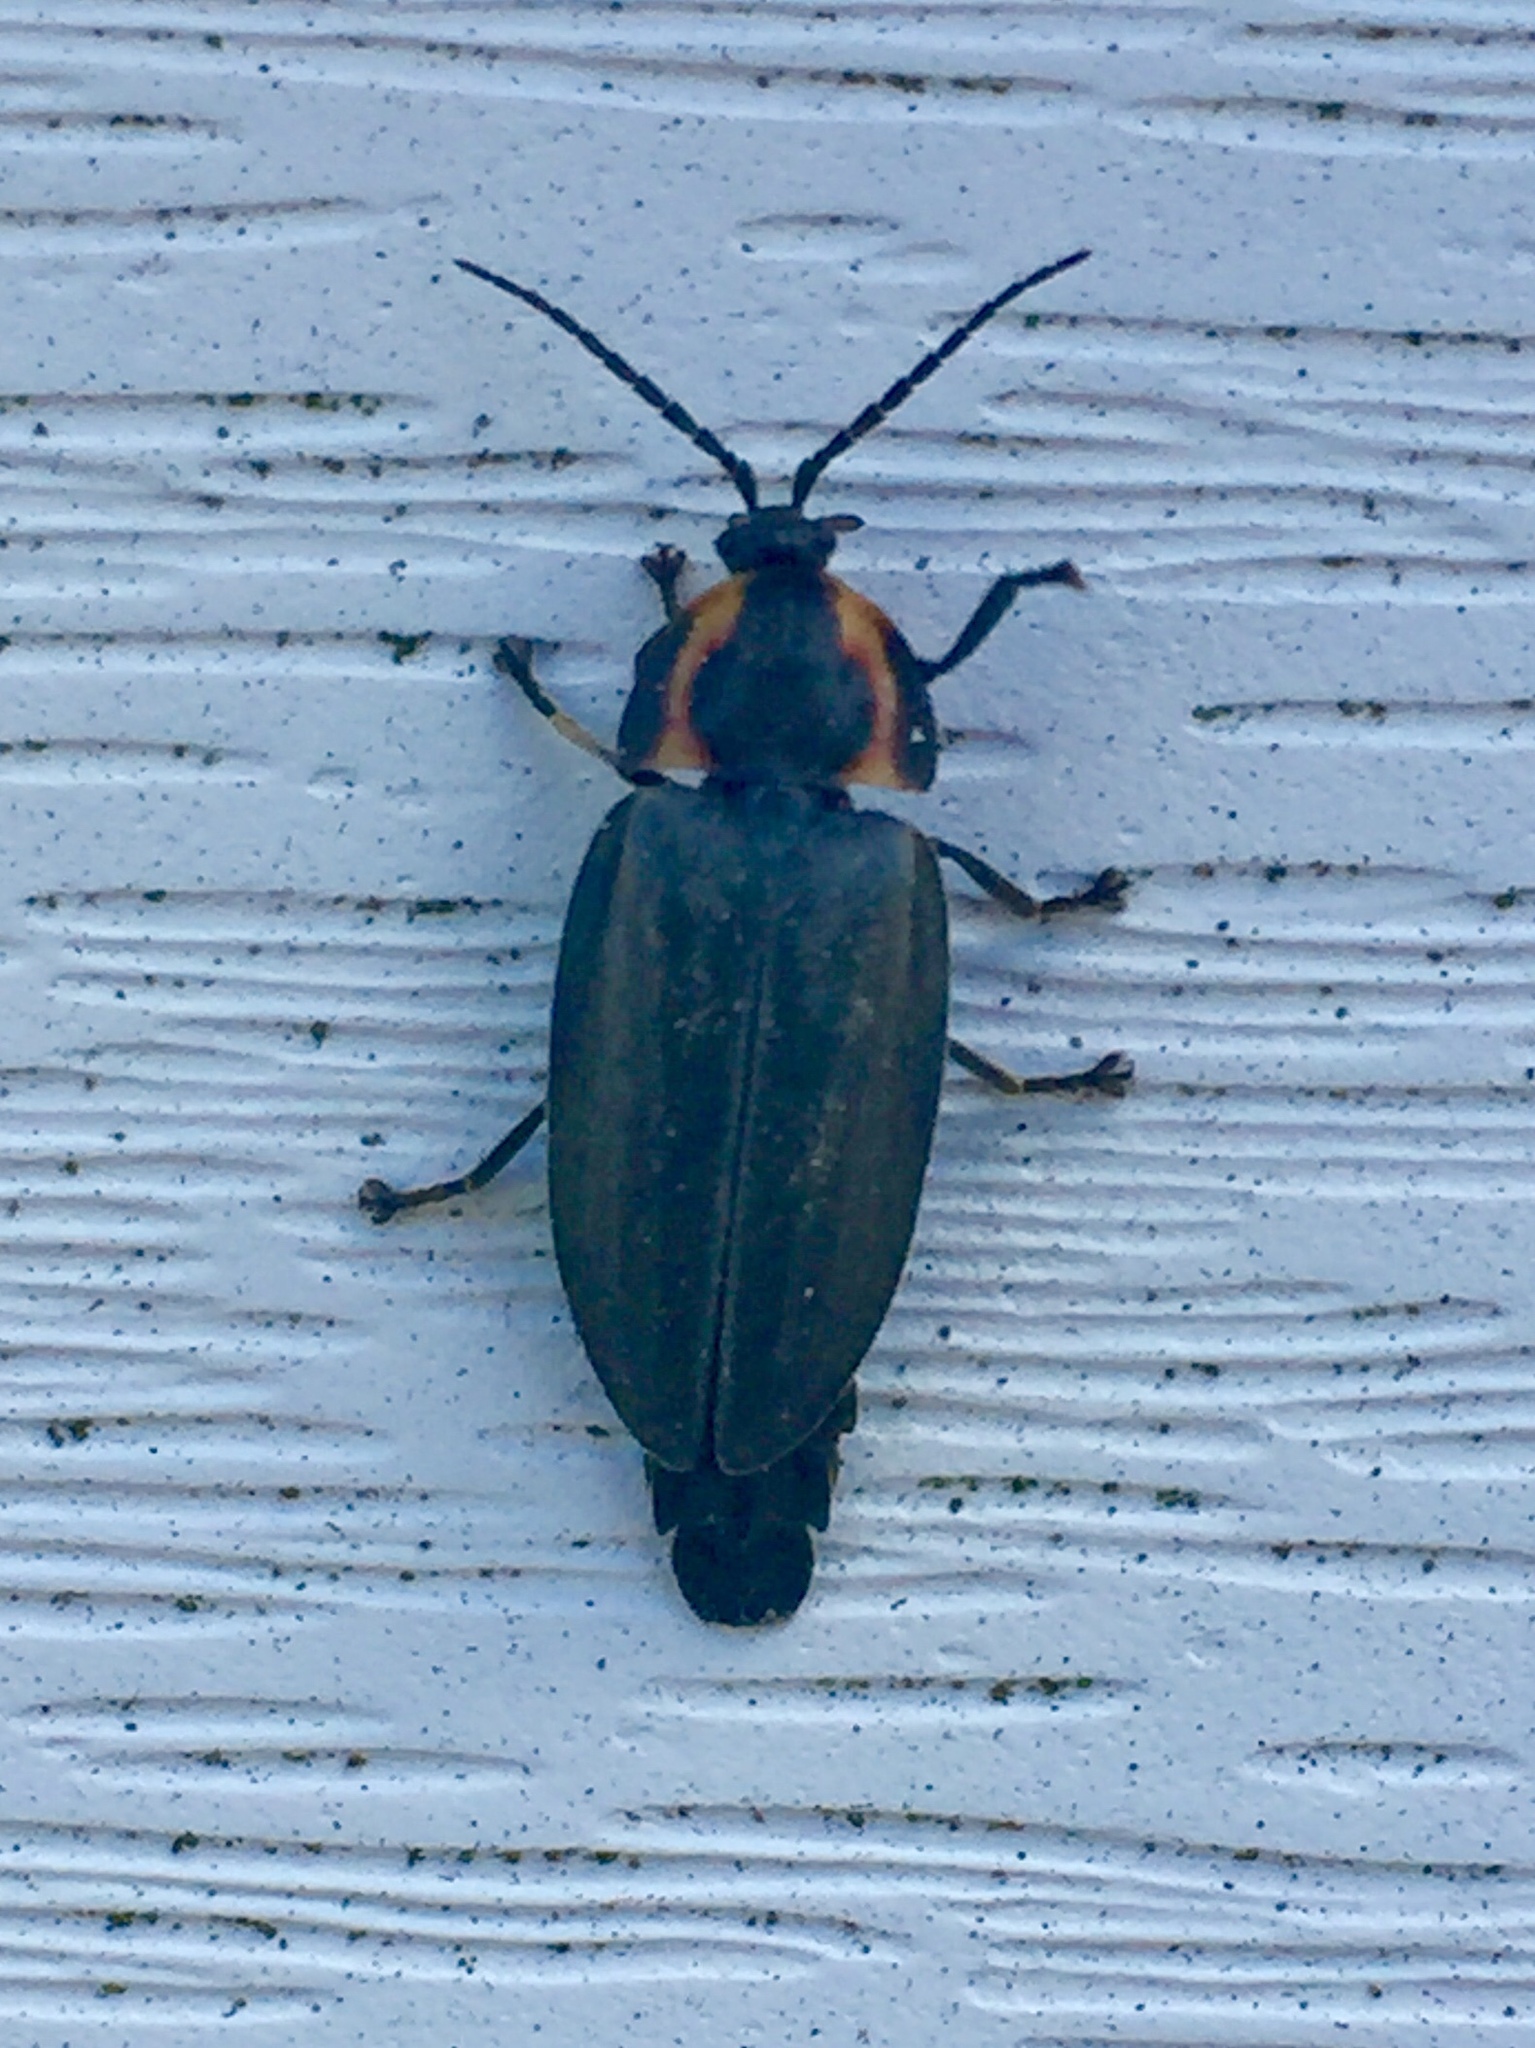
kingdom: Animalia
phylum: Arthropoda
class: Insecta
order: Coleoptera
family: Lampyridae
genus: Photinus
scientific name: Photinus corrusca
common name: Winter firefly
